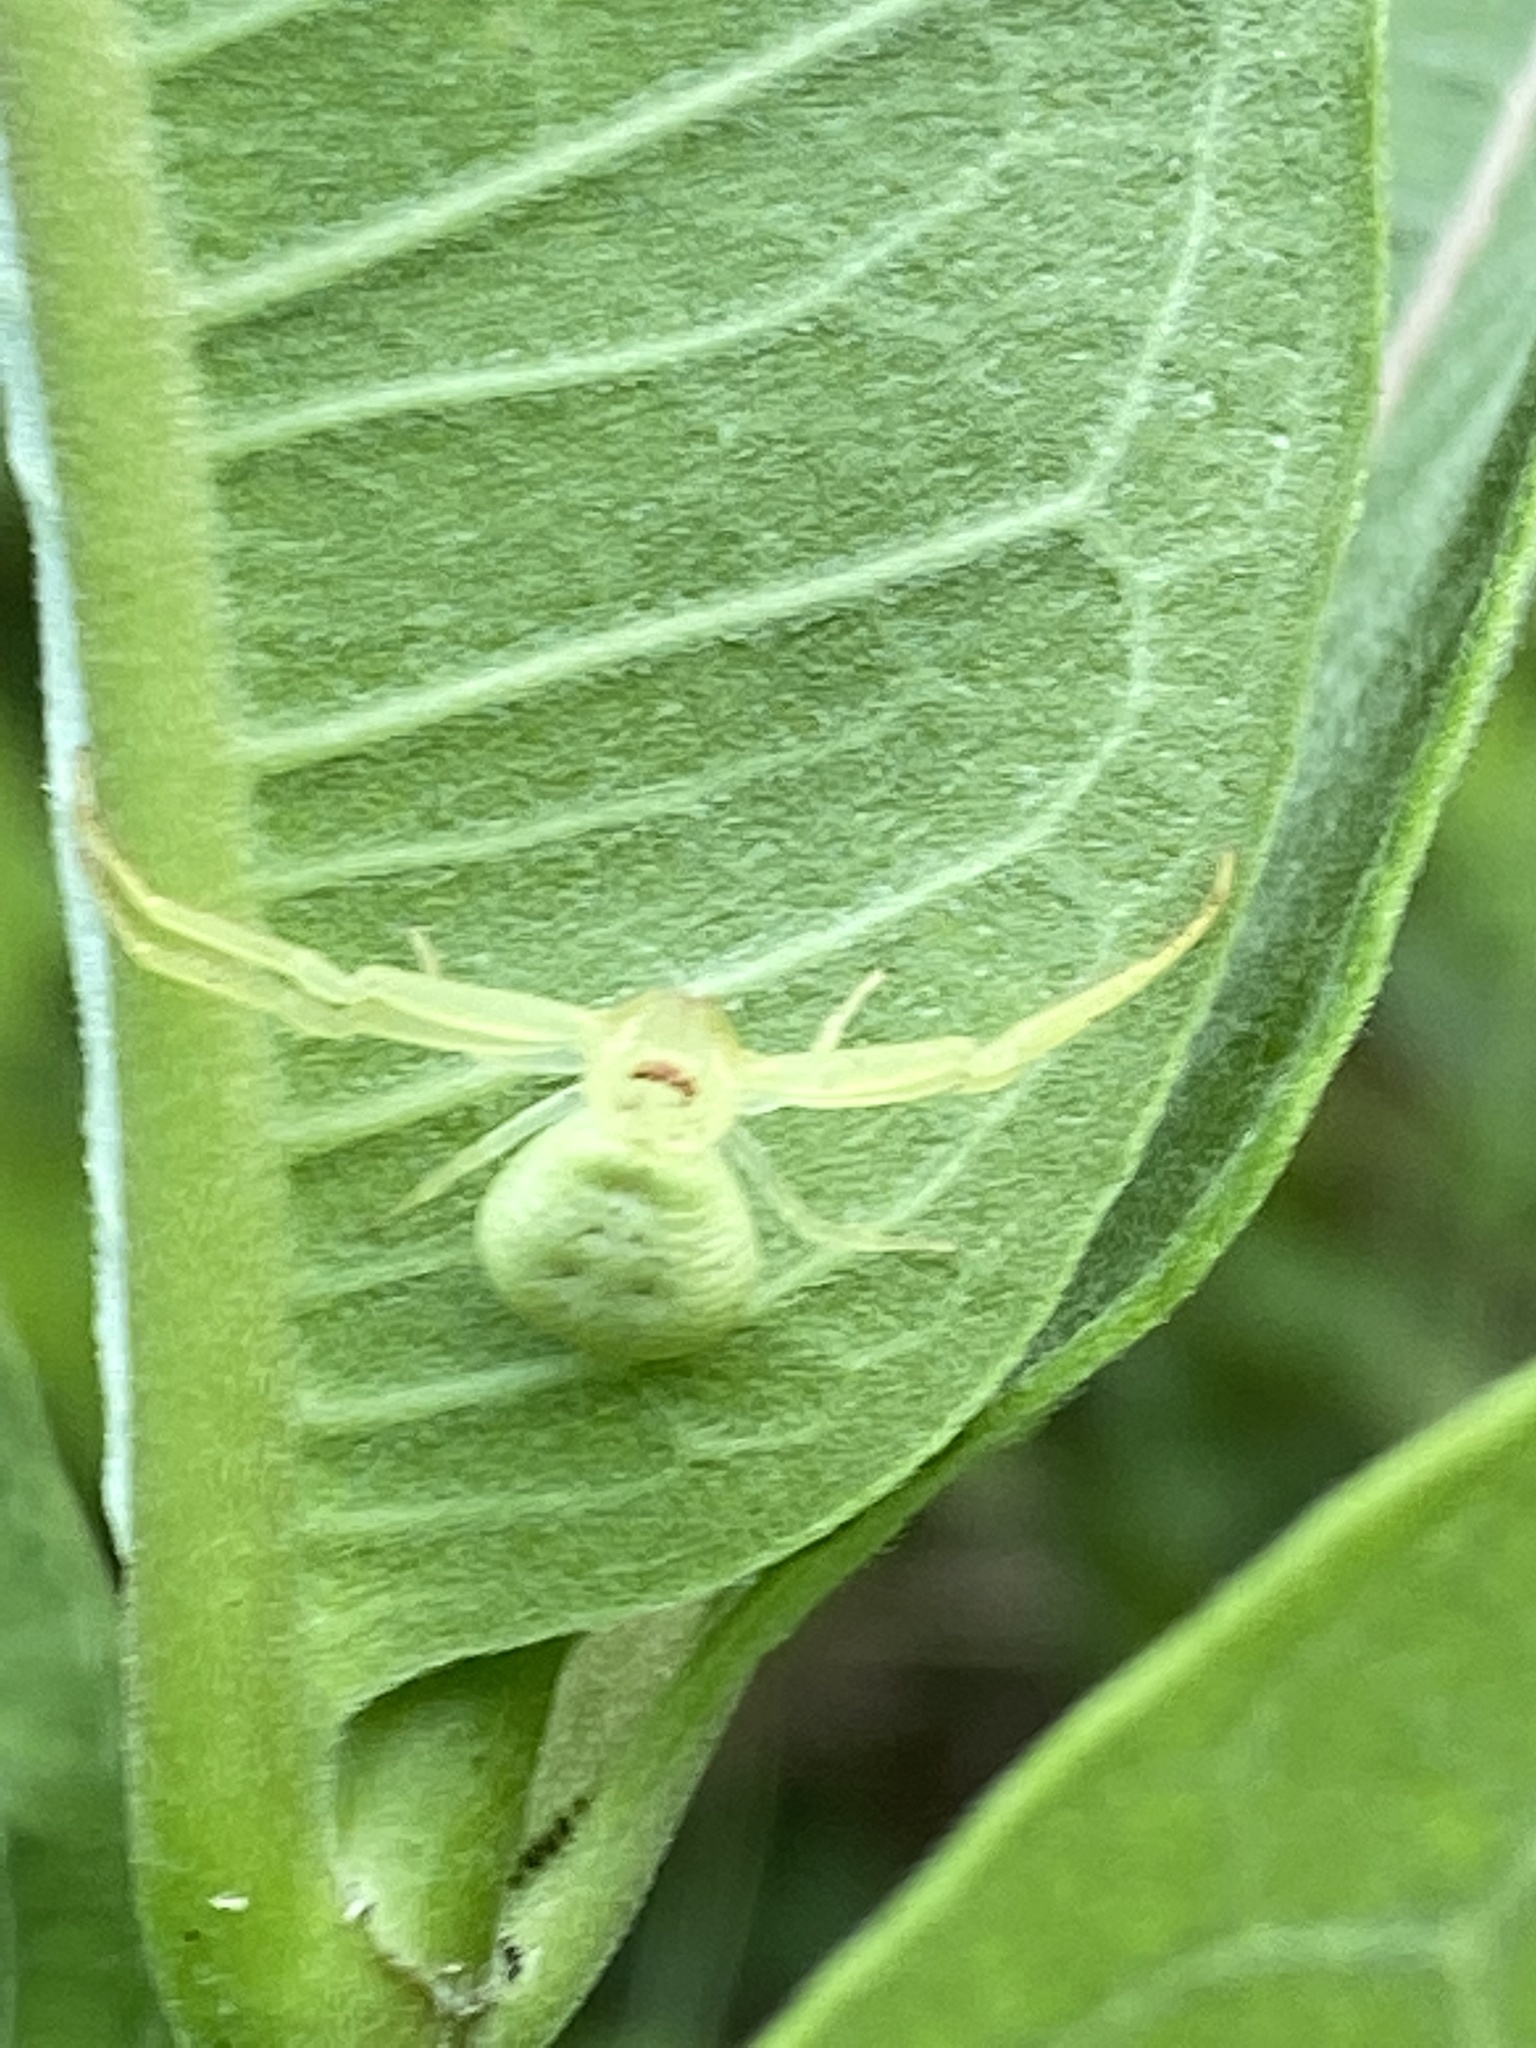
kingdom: Animalia
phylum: Arthropoda
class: Arachnida
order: Araneae
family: Thomisidae
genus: Misumessus
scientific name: Misumessus oblongus
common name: American green crab spider
